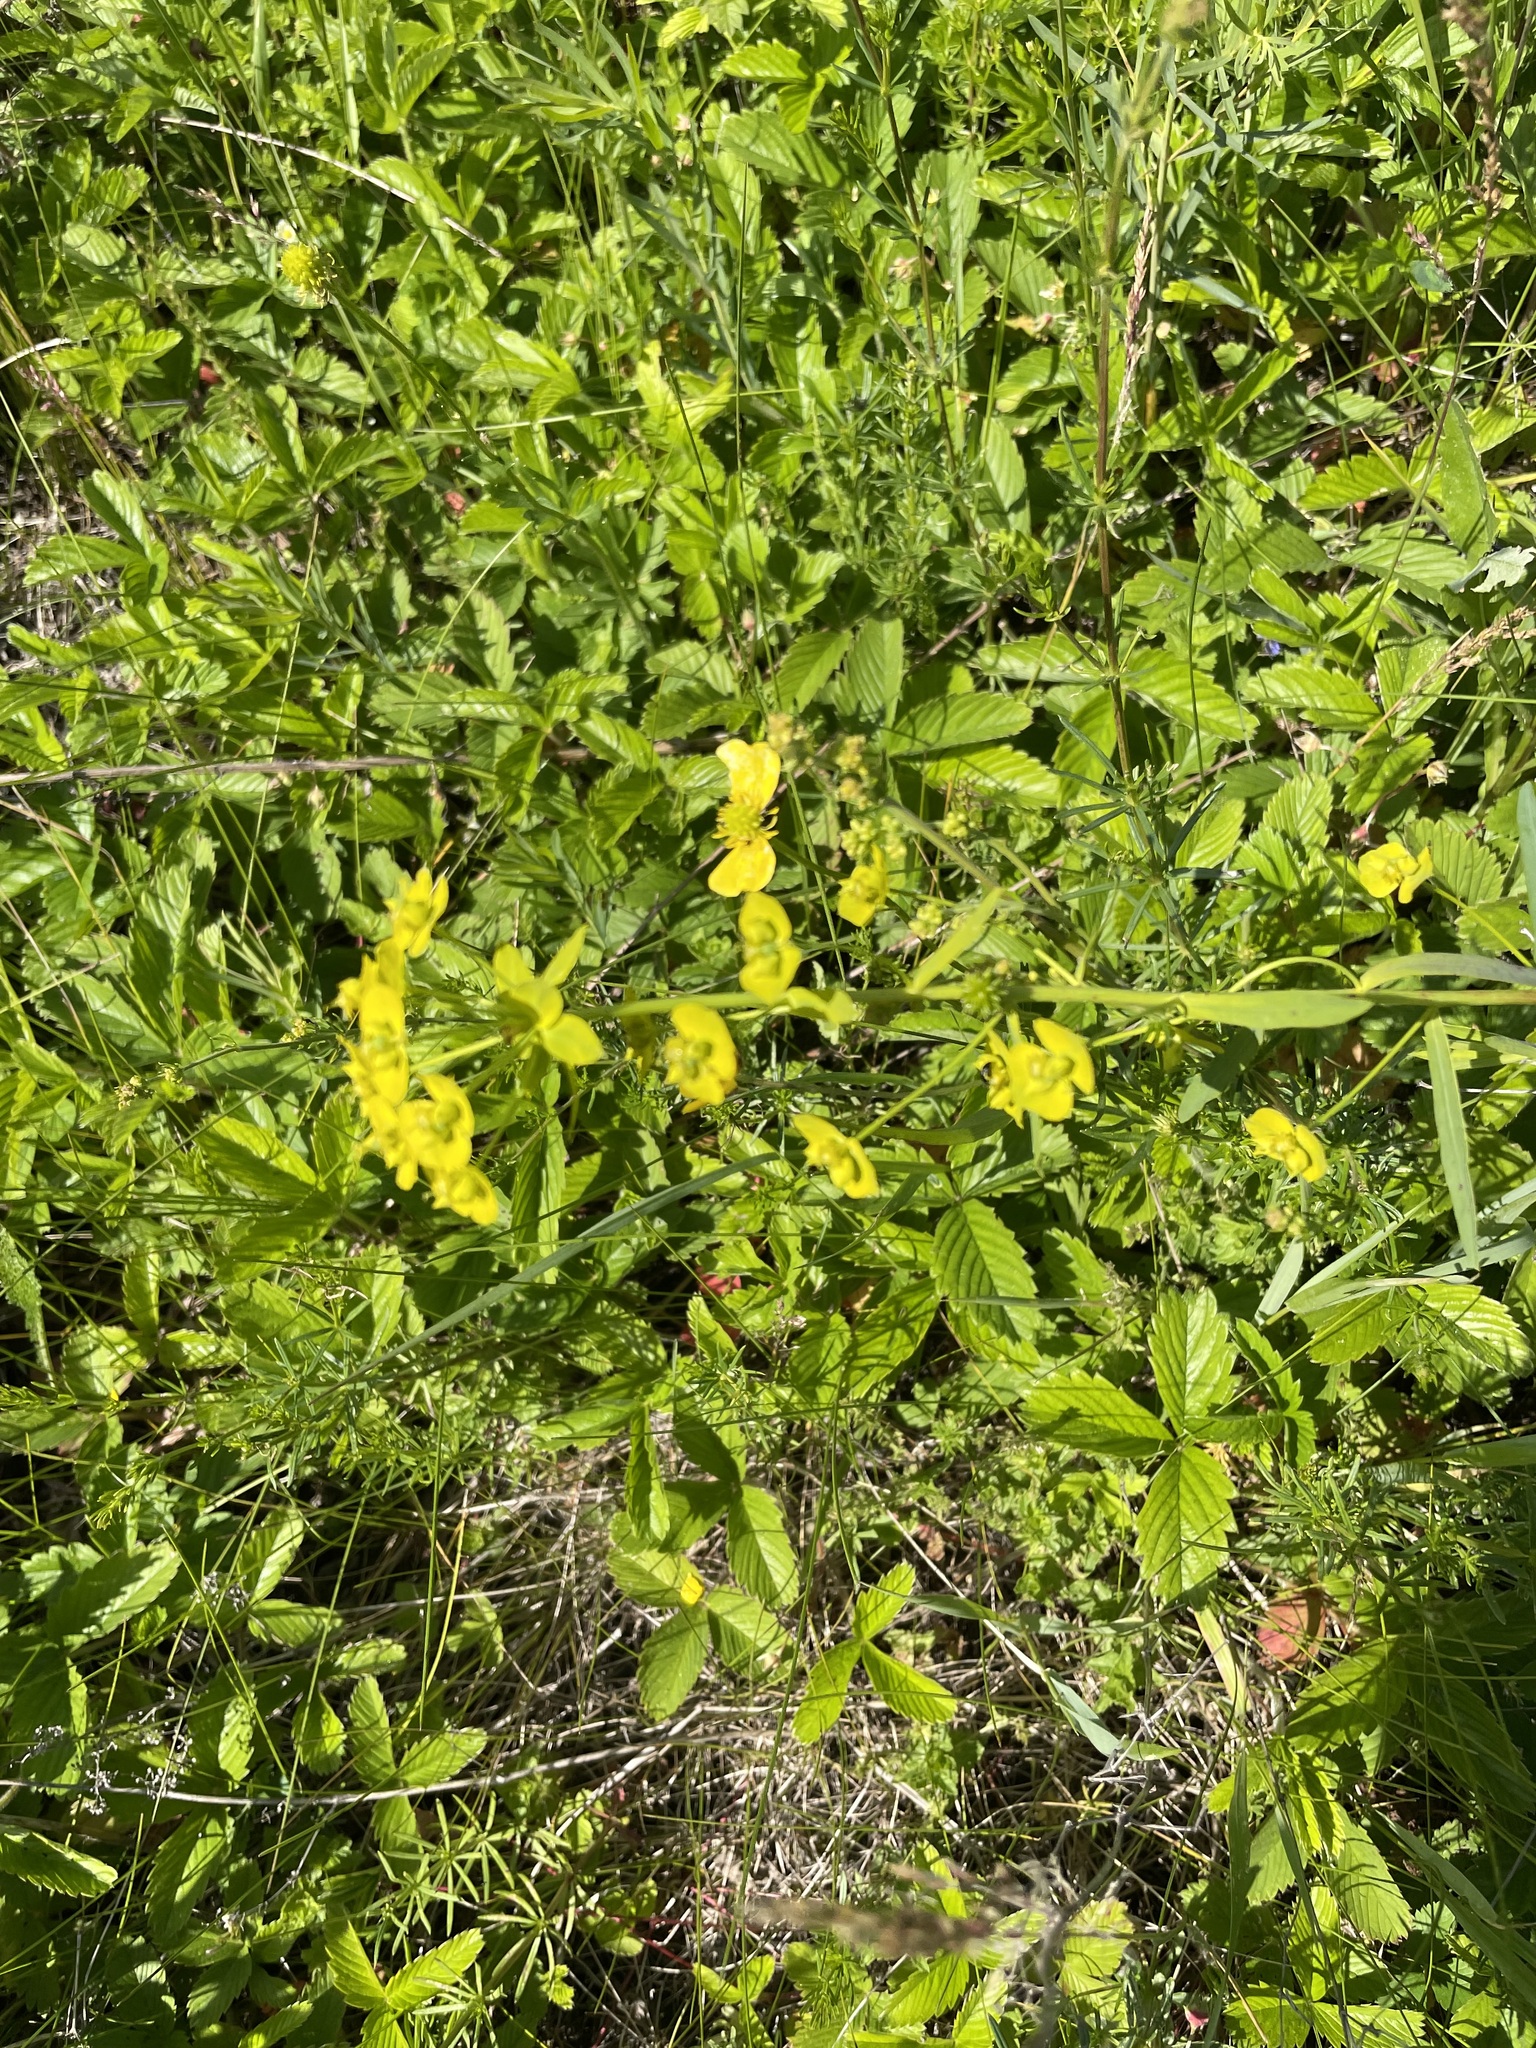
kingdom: Plantae
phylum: Tracheophyta
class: Magnoliopsida
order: Malpighiales
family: Euphorbiaceae
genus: Euphorbia
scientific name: Euphorbia virgata
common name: Leafy spurge
